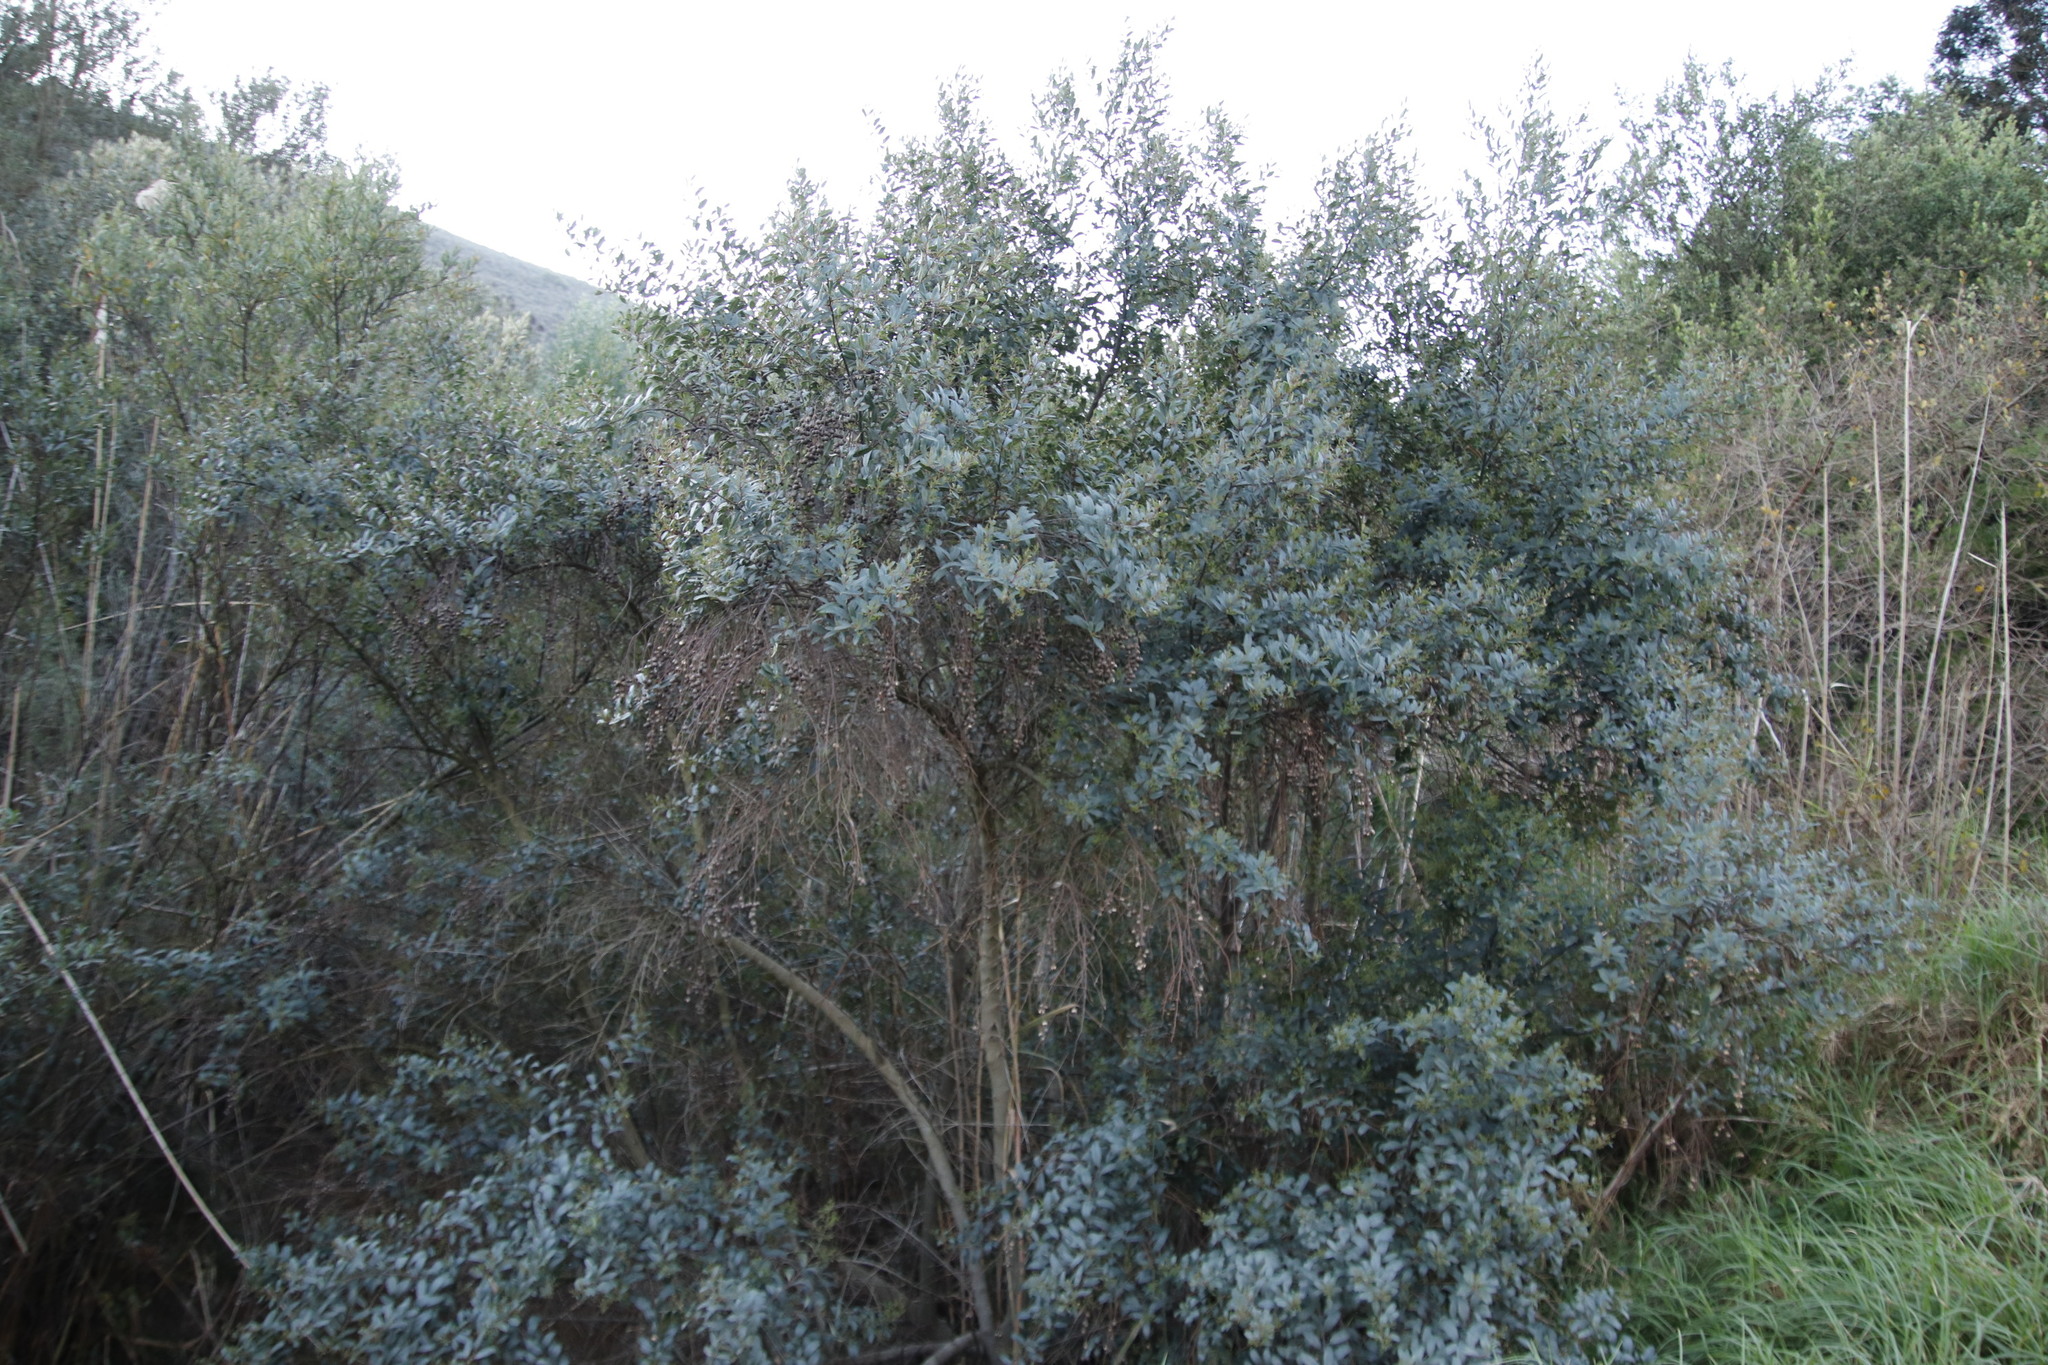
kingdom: Plantae
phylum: Tracheophyta
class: Magnoliopsida
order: Rosales
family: Rhamnaceae
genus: Noltea
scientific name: Noltea africana
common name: Soapbush
